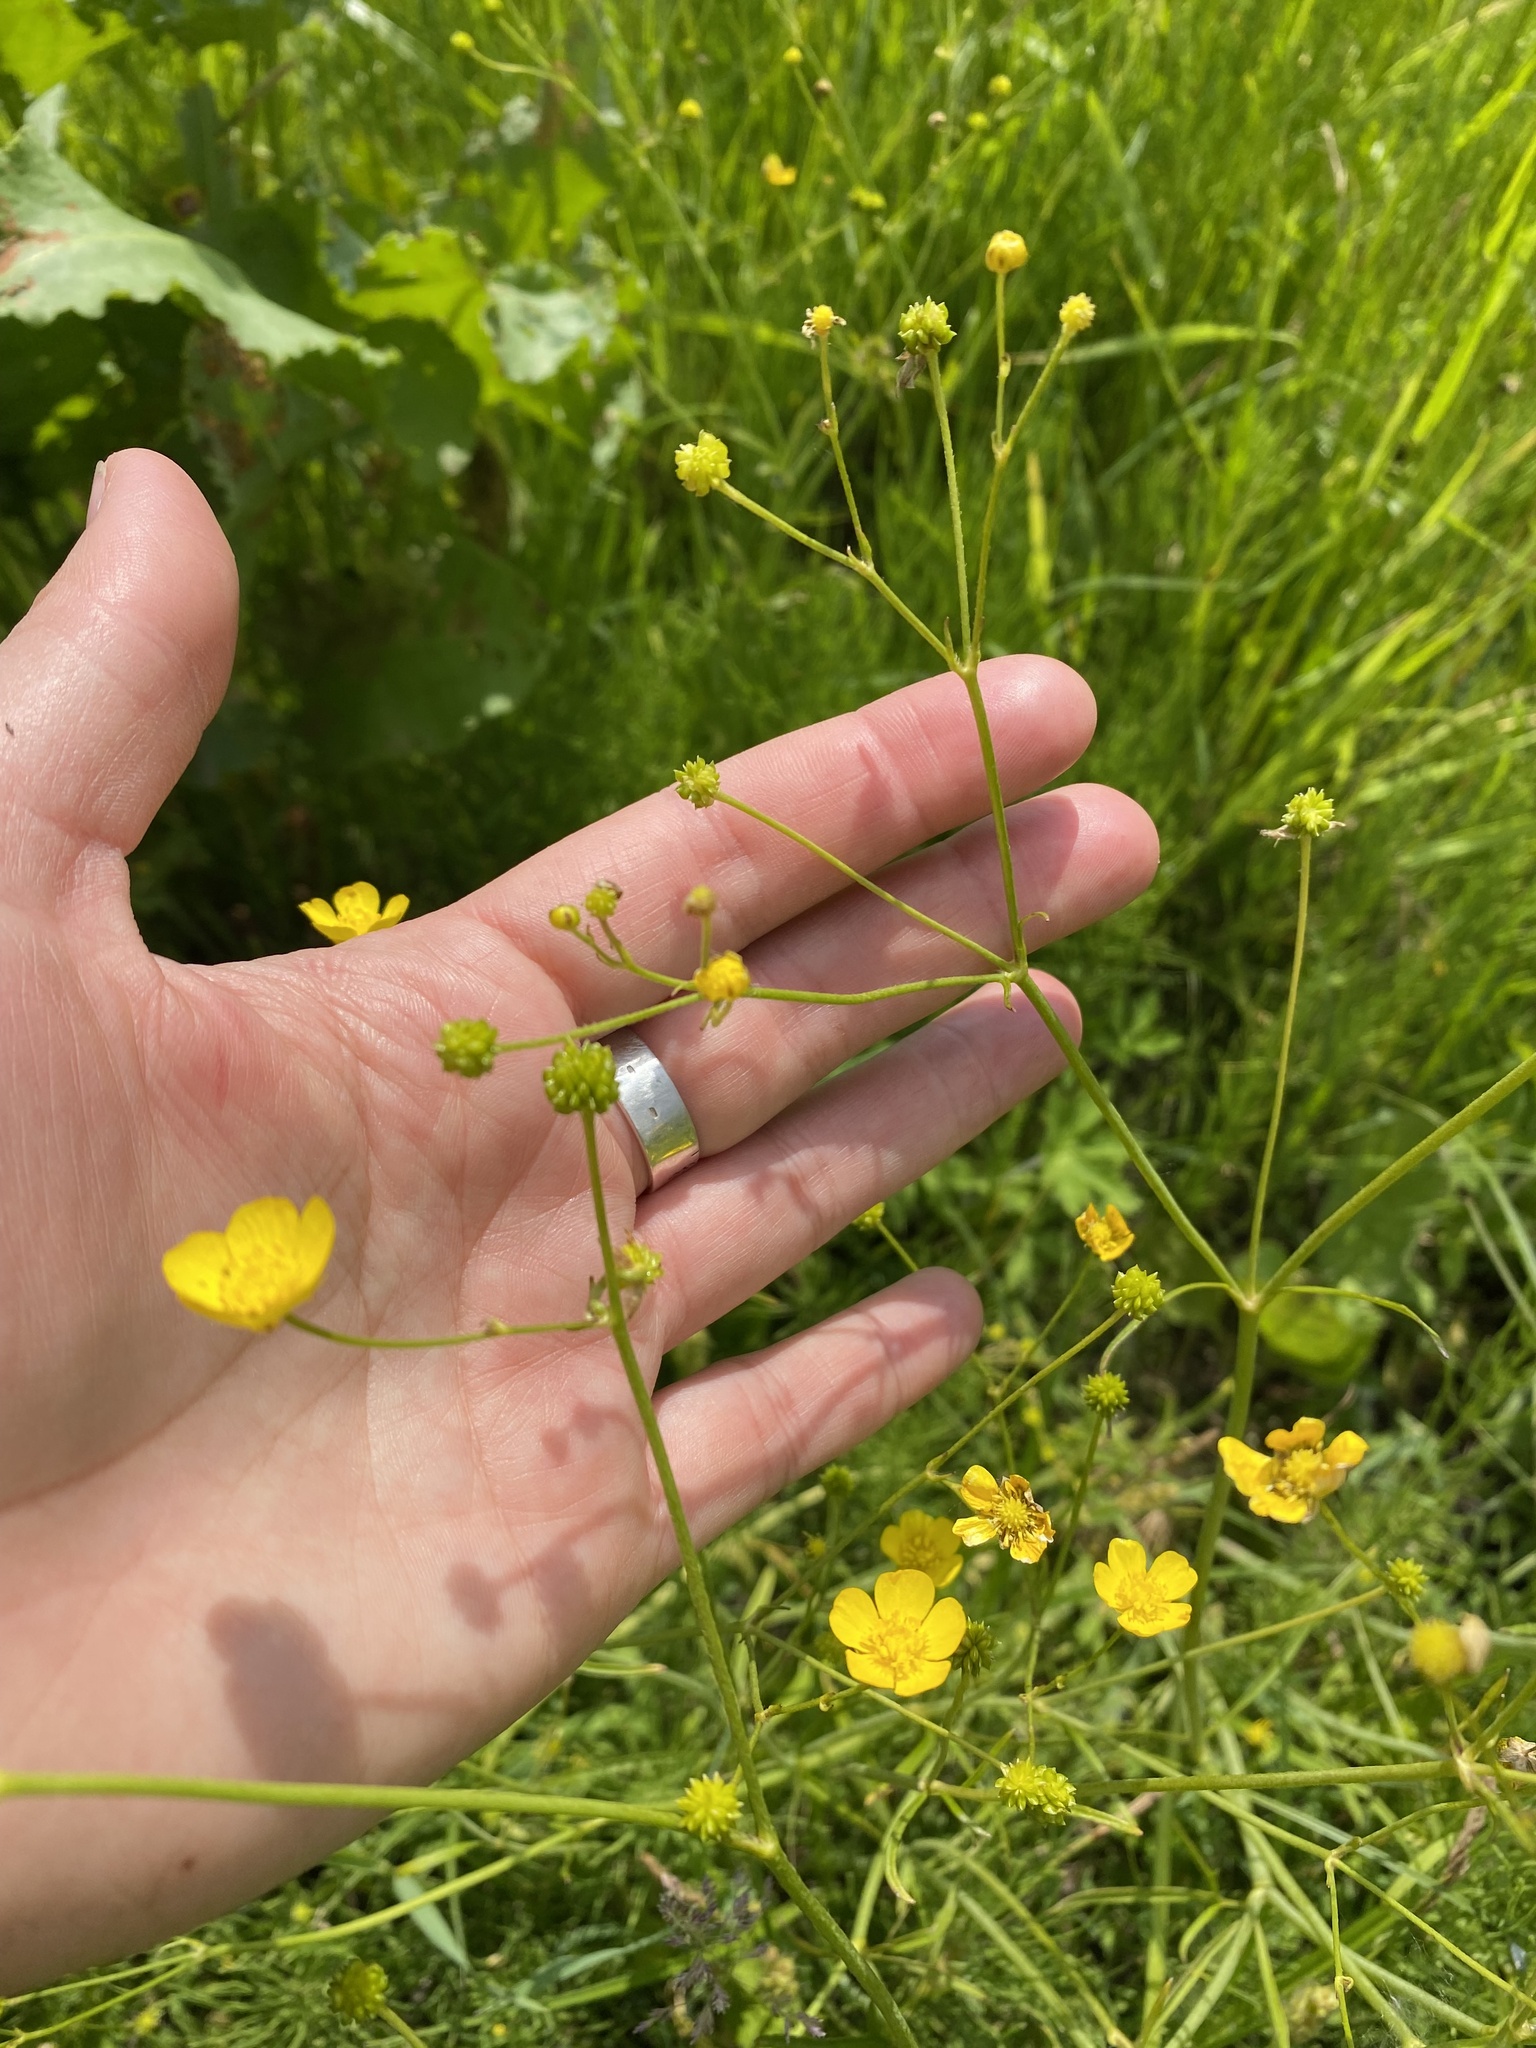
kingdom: Plantae
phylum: Tracheophyta
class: Magnoliopsida
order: Ranunculales
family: Ranunculaceae
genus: Ranunculus
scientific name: Ranunculus acris
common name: Meadow buttercup
